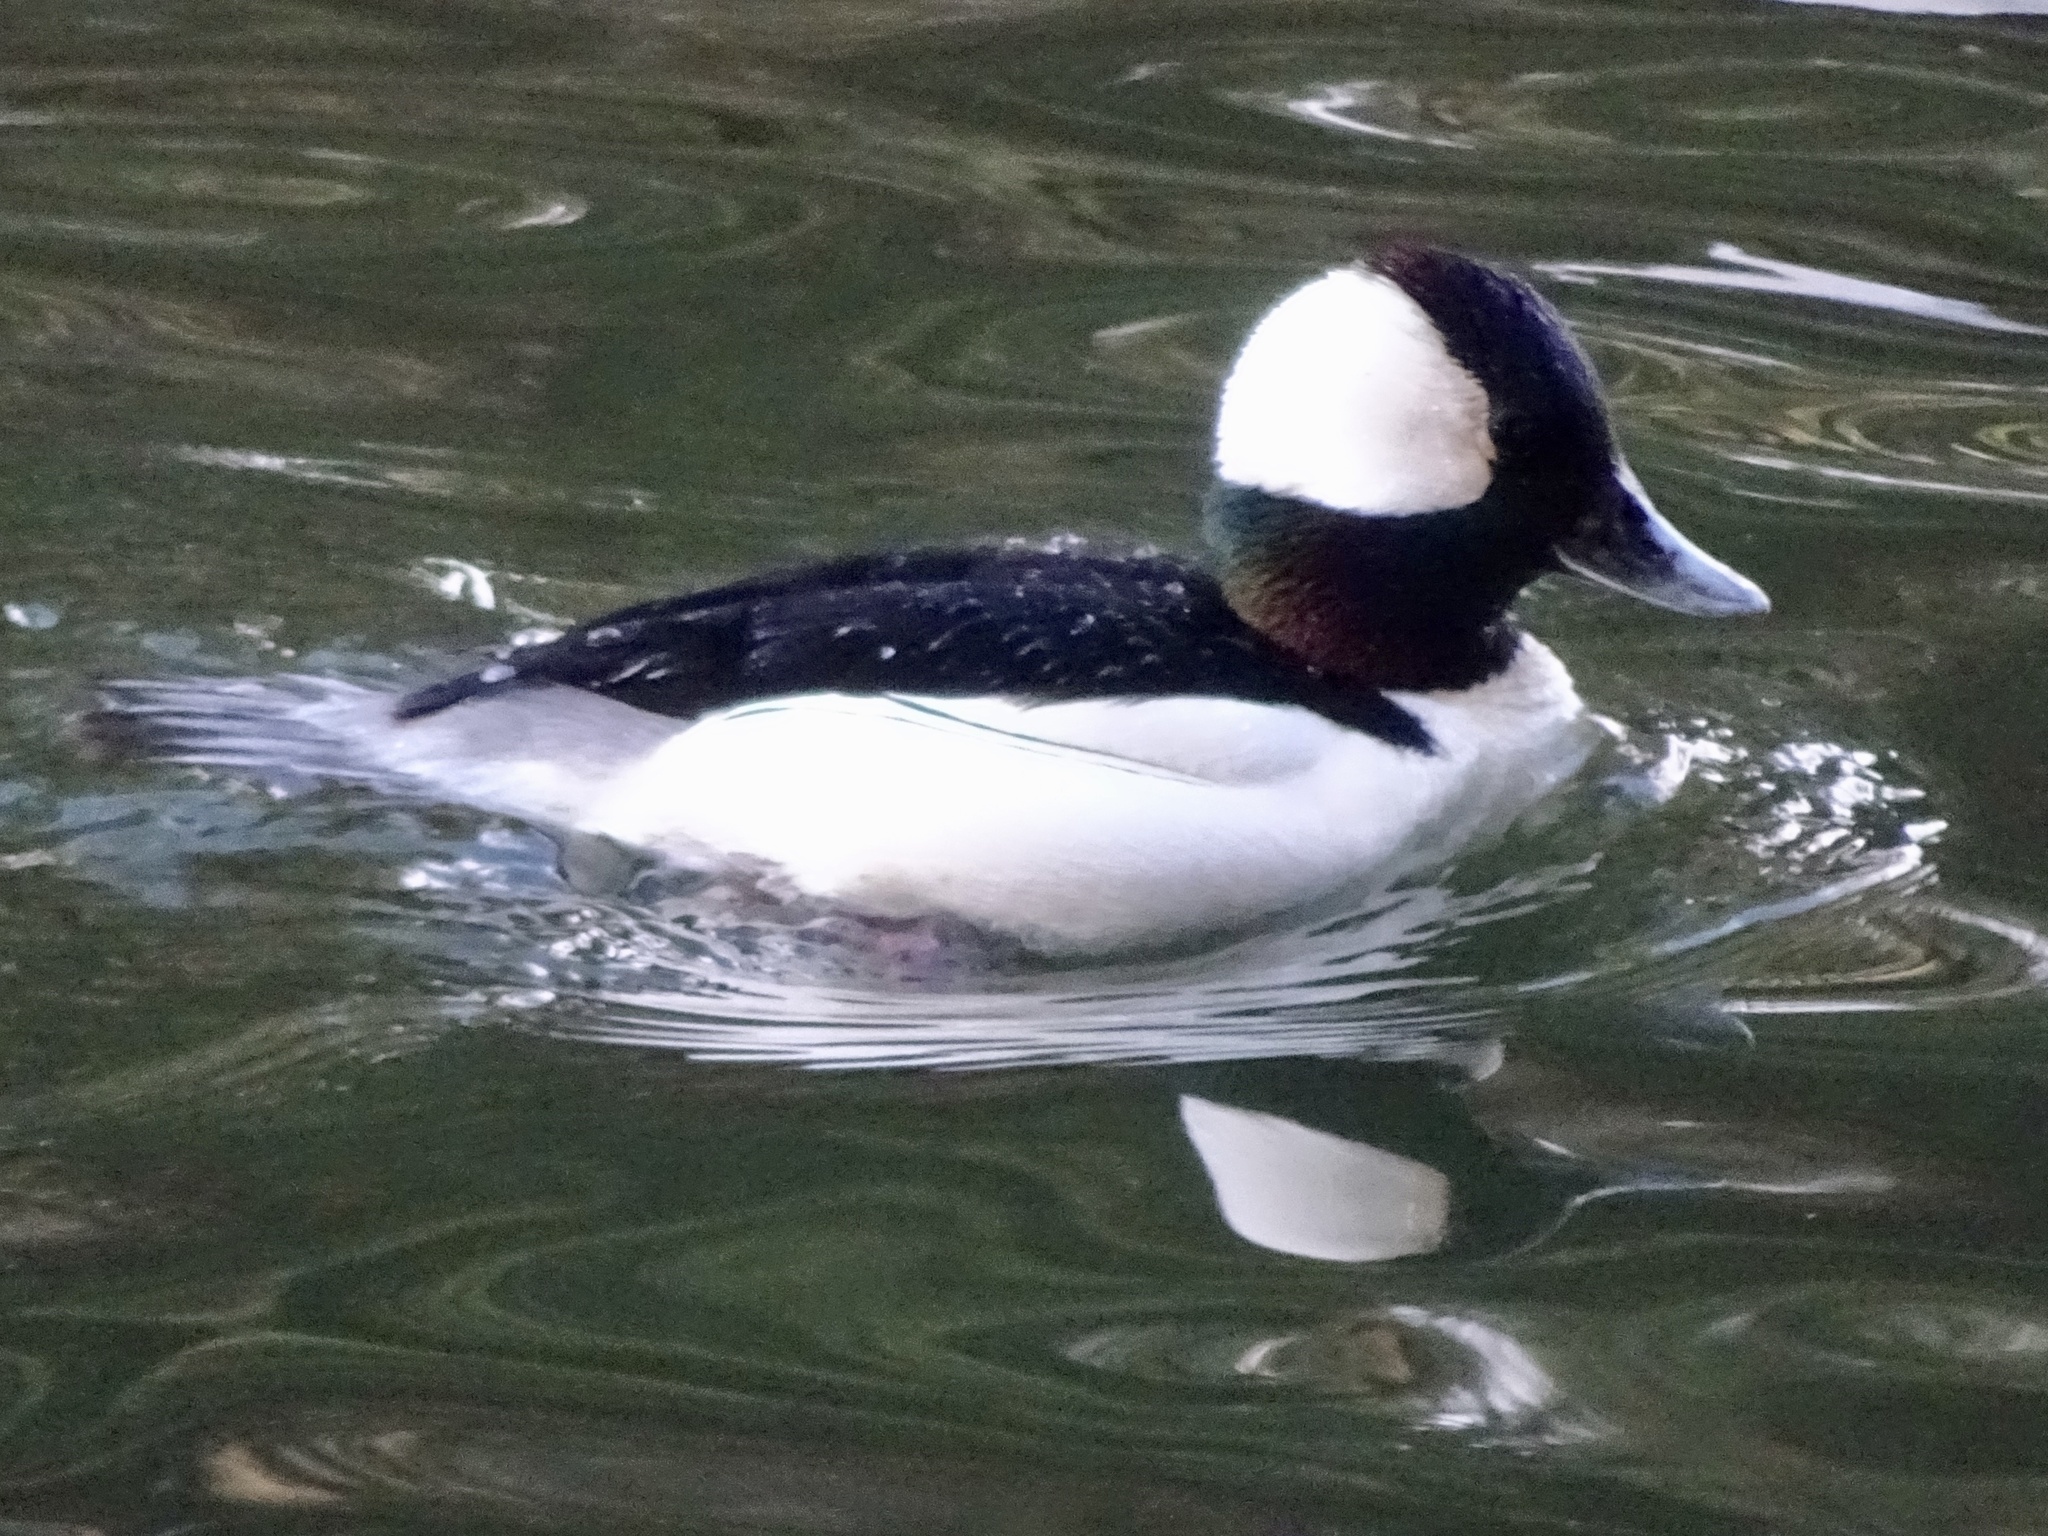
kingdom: Animalia
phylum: Chordata
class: Aves
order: Anseriformes
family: Anatidae
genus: Bucephala
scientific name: Bucephala albeola
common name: Bufflehead
